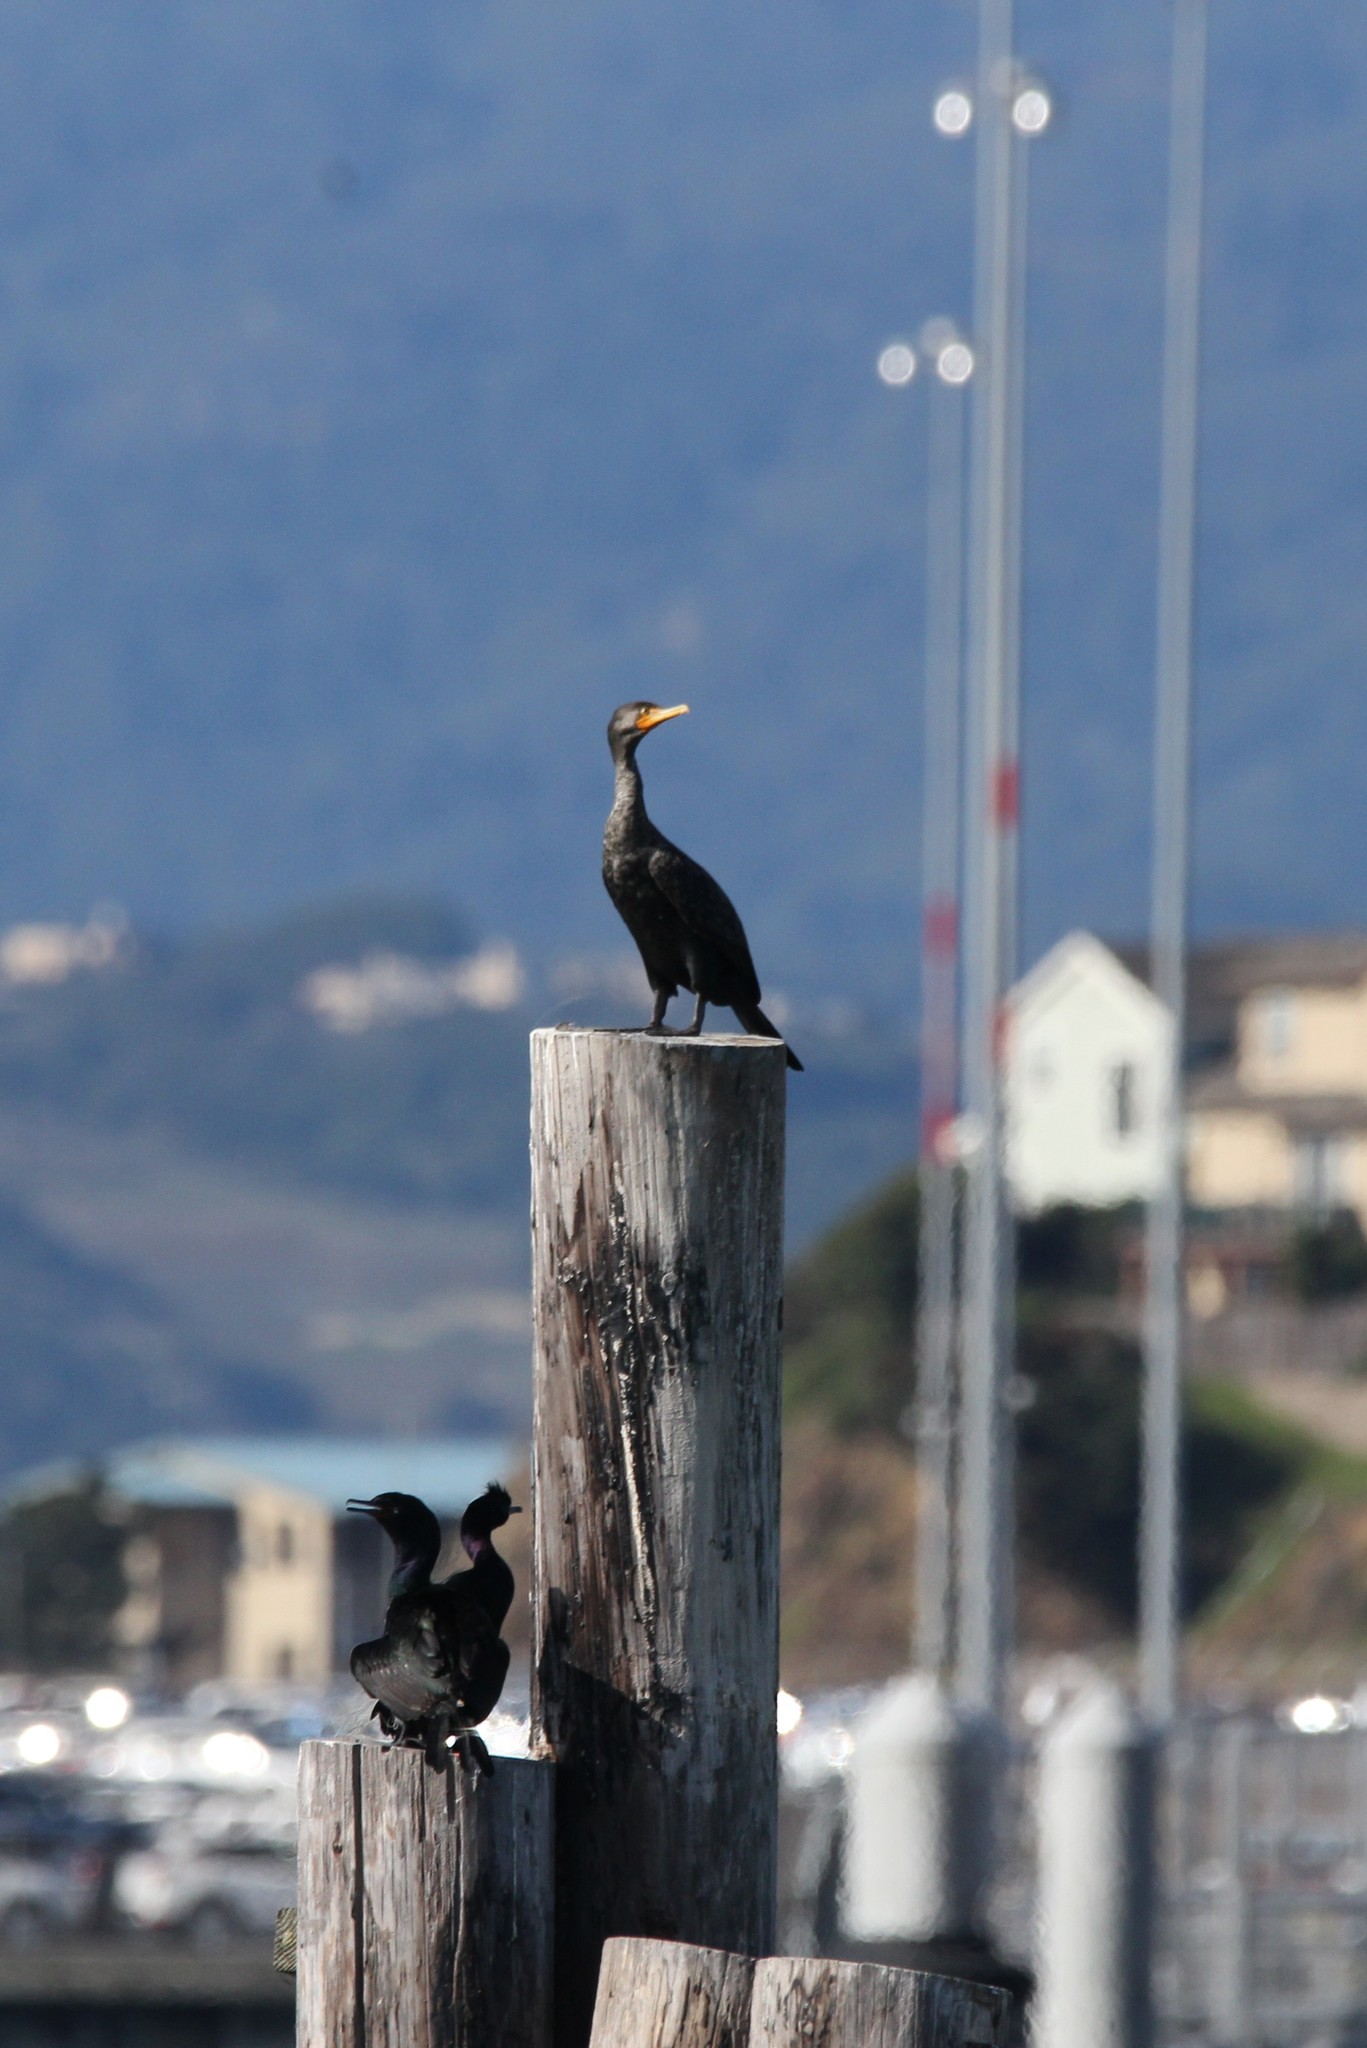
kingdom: Animalia
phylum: Chordata
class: Aves
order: Suliformes
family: Phalacrocoracidae
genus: Phalacrocorax
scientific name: Phalacrocorax auritus
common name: Double-crested cormorant
